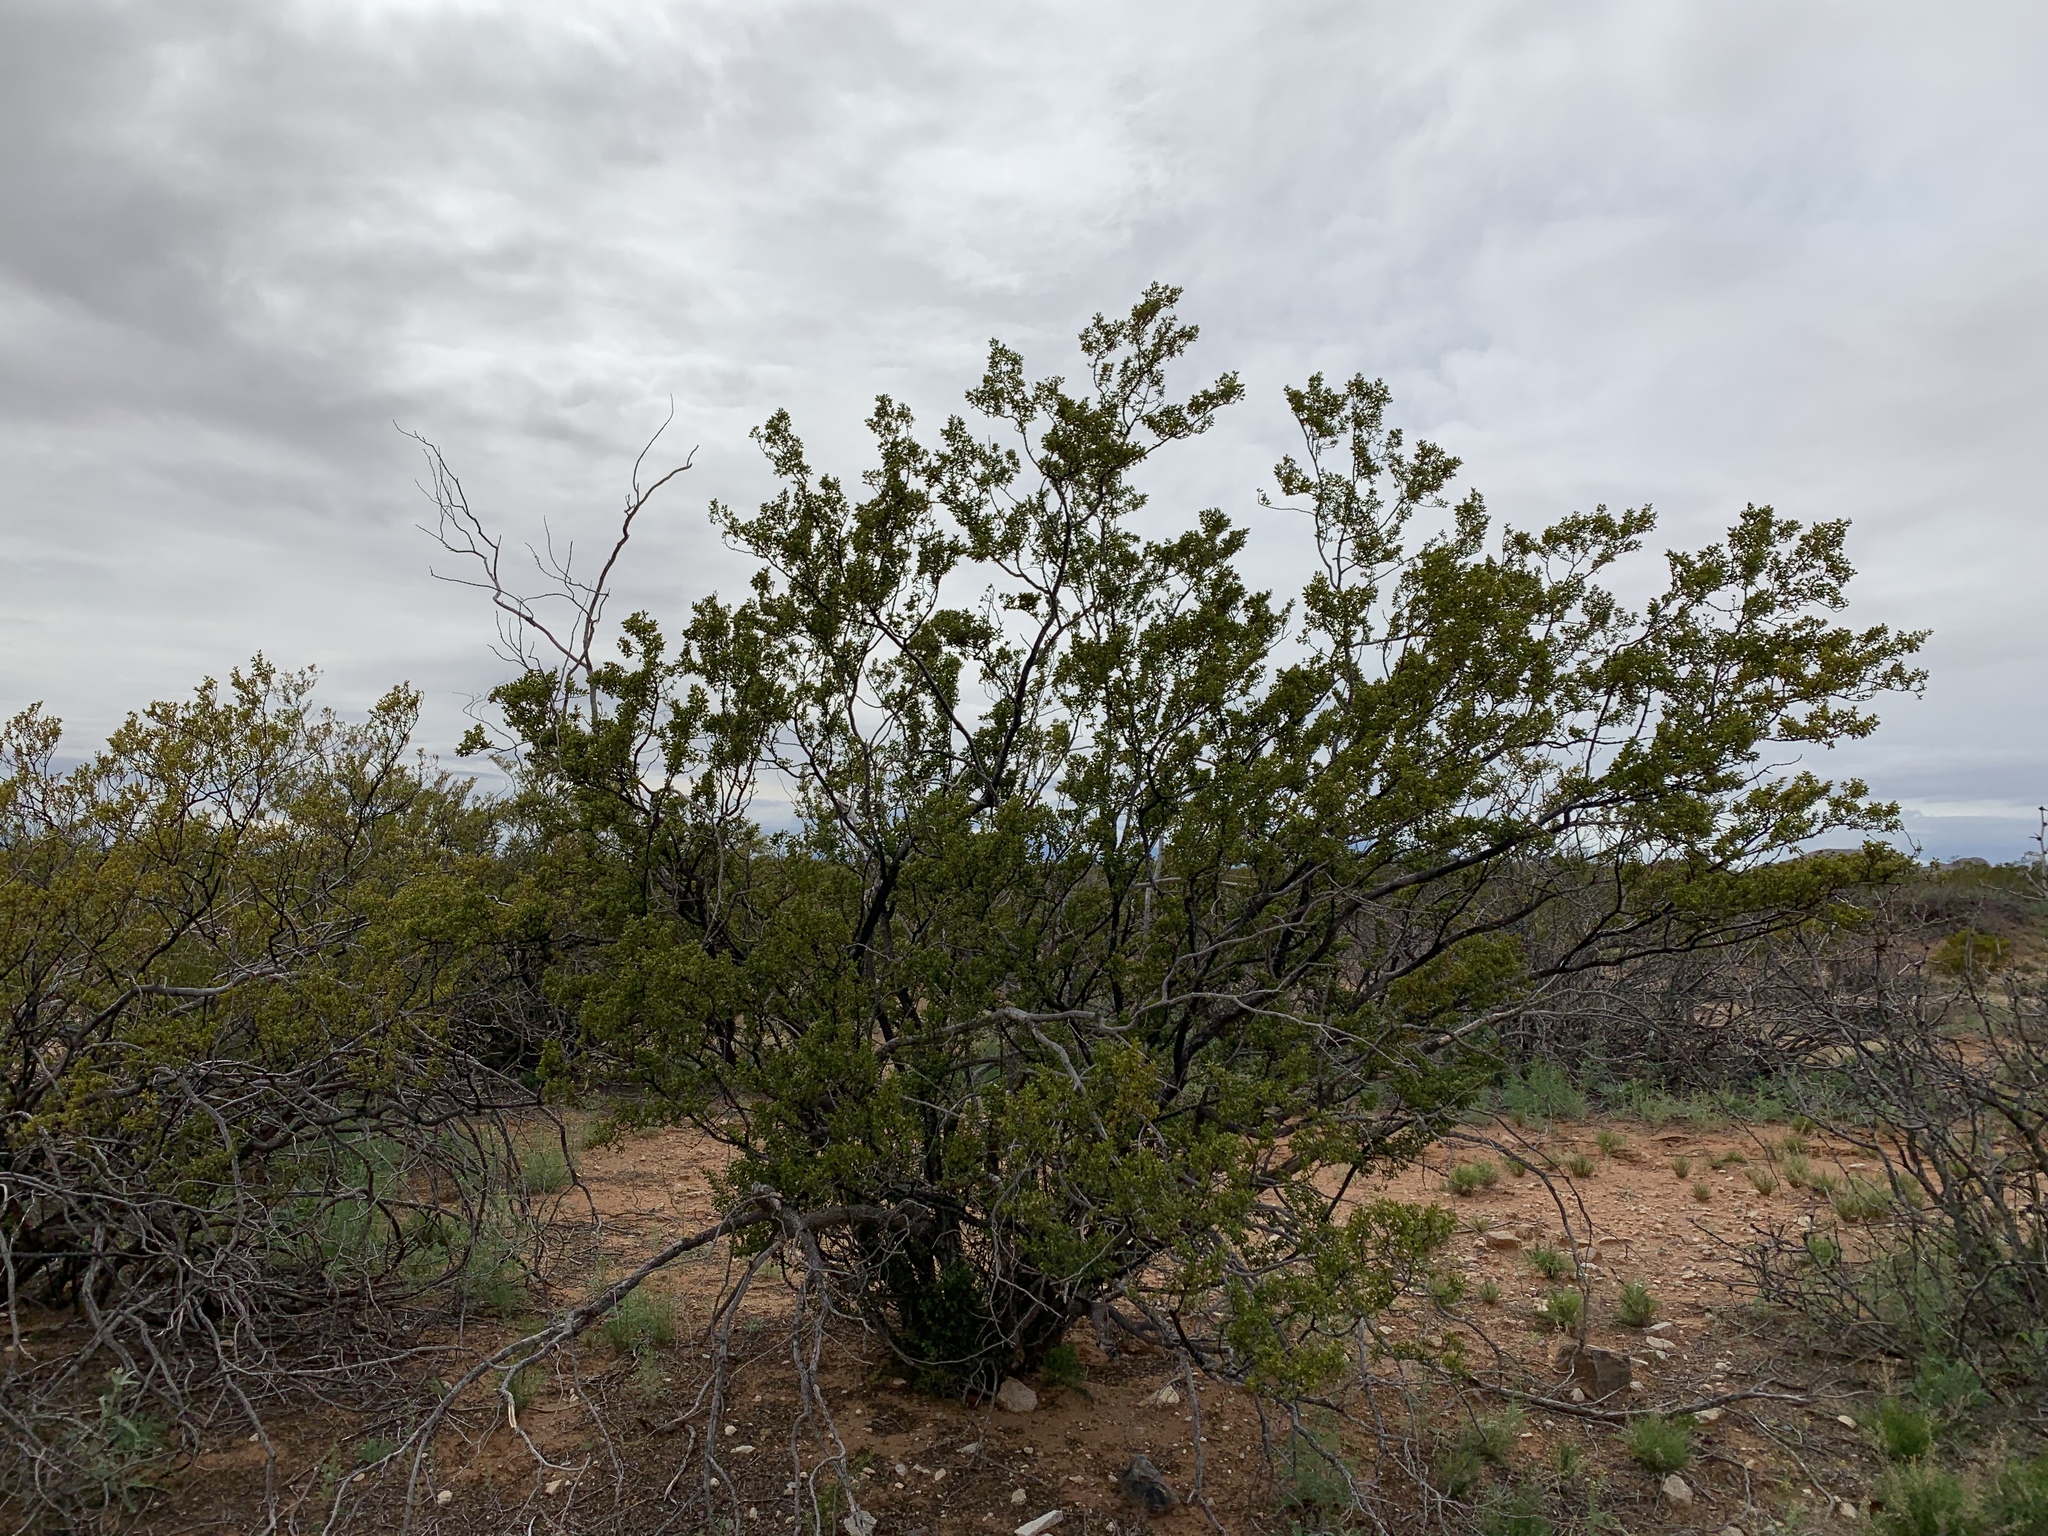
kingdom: Plantae
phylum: Tracheophyta
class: Magnoliopsida
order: Zygophyllales
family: Zygophyllaceae
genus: Larrea
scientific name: Larrea tridentata
